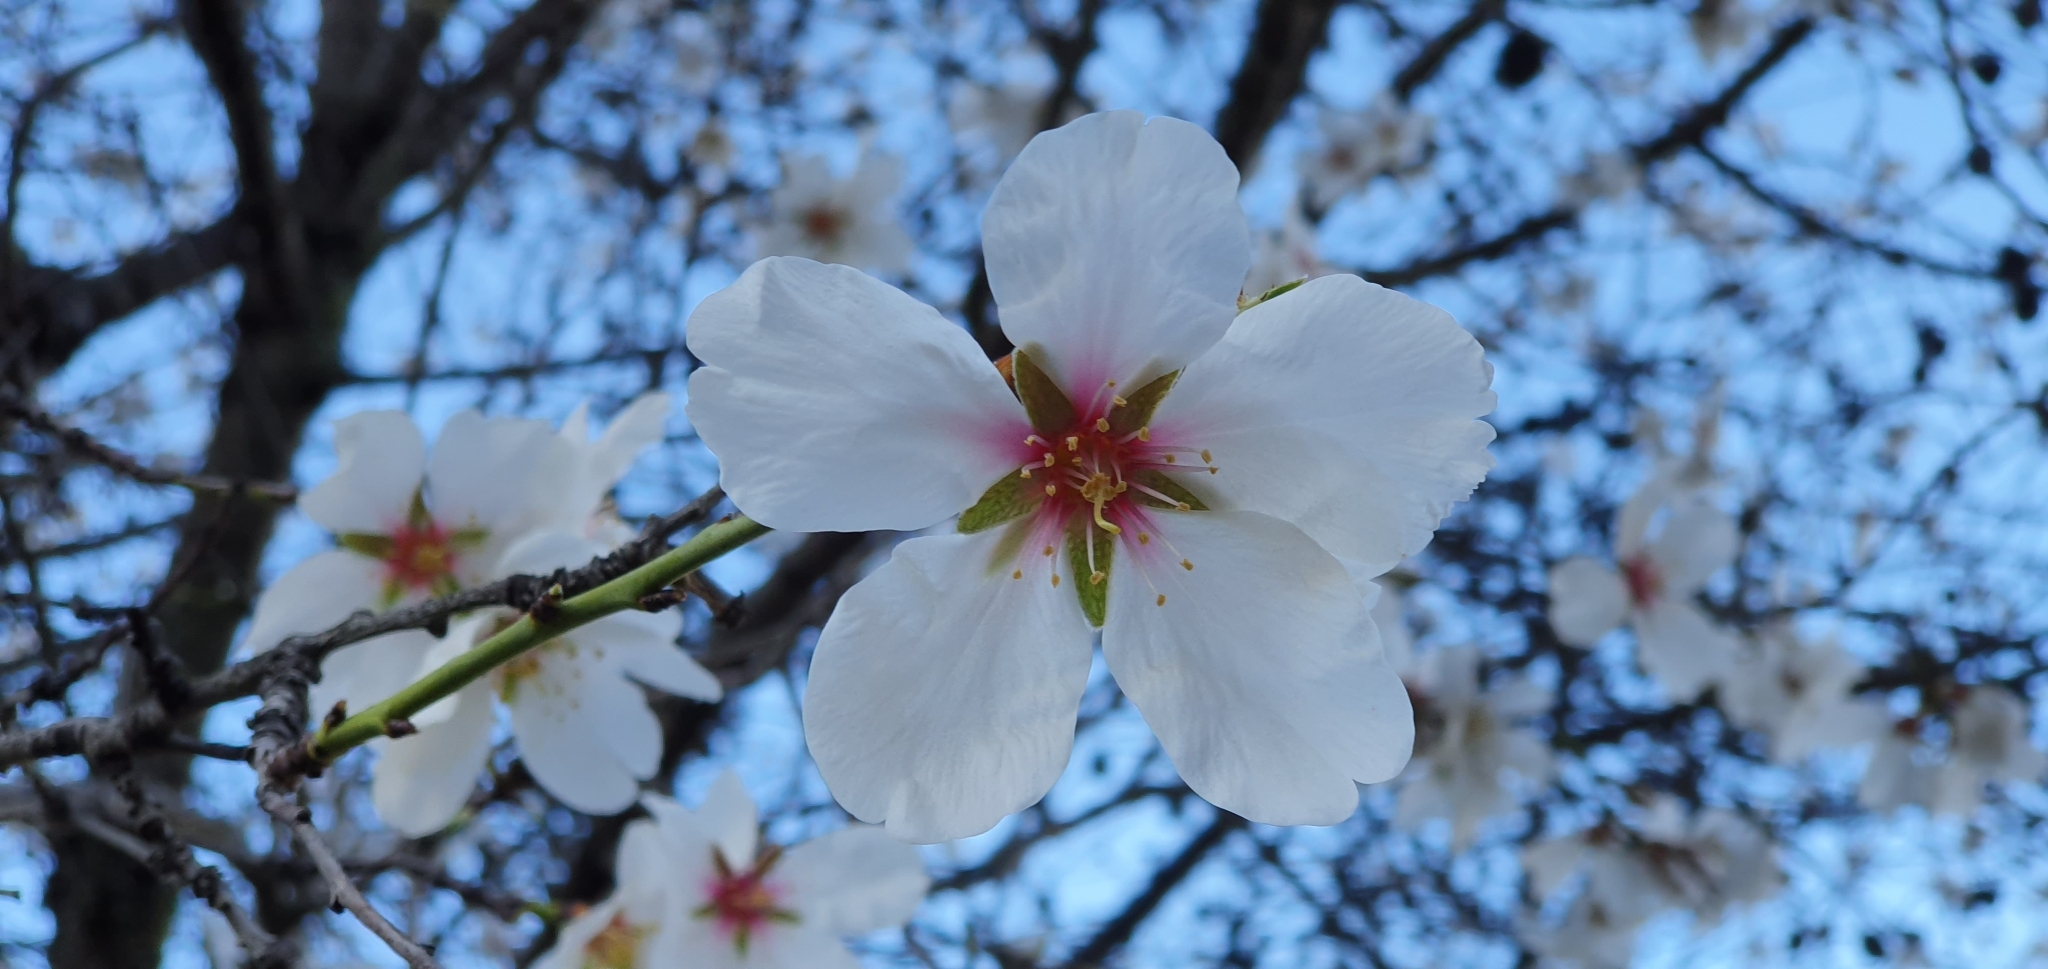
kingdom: Plantae
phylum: Tracheophyta
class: Magnoliopsida
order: Rosales
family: Rosaceae
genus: Prunus
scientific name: Prunus amygdalus
